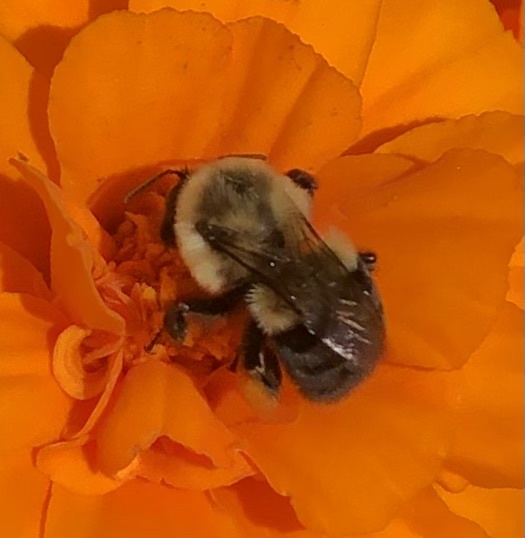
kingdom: Animalia
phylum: Arthropoda
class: Insecta
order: Hymenoptera
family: Apidae
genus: Bombus
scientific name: Bombus impatiens
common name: Common eastern bumble bee
